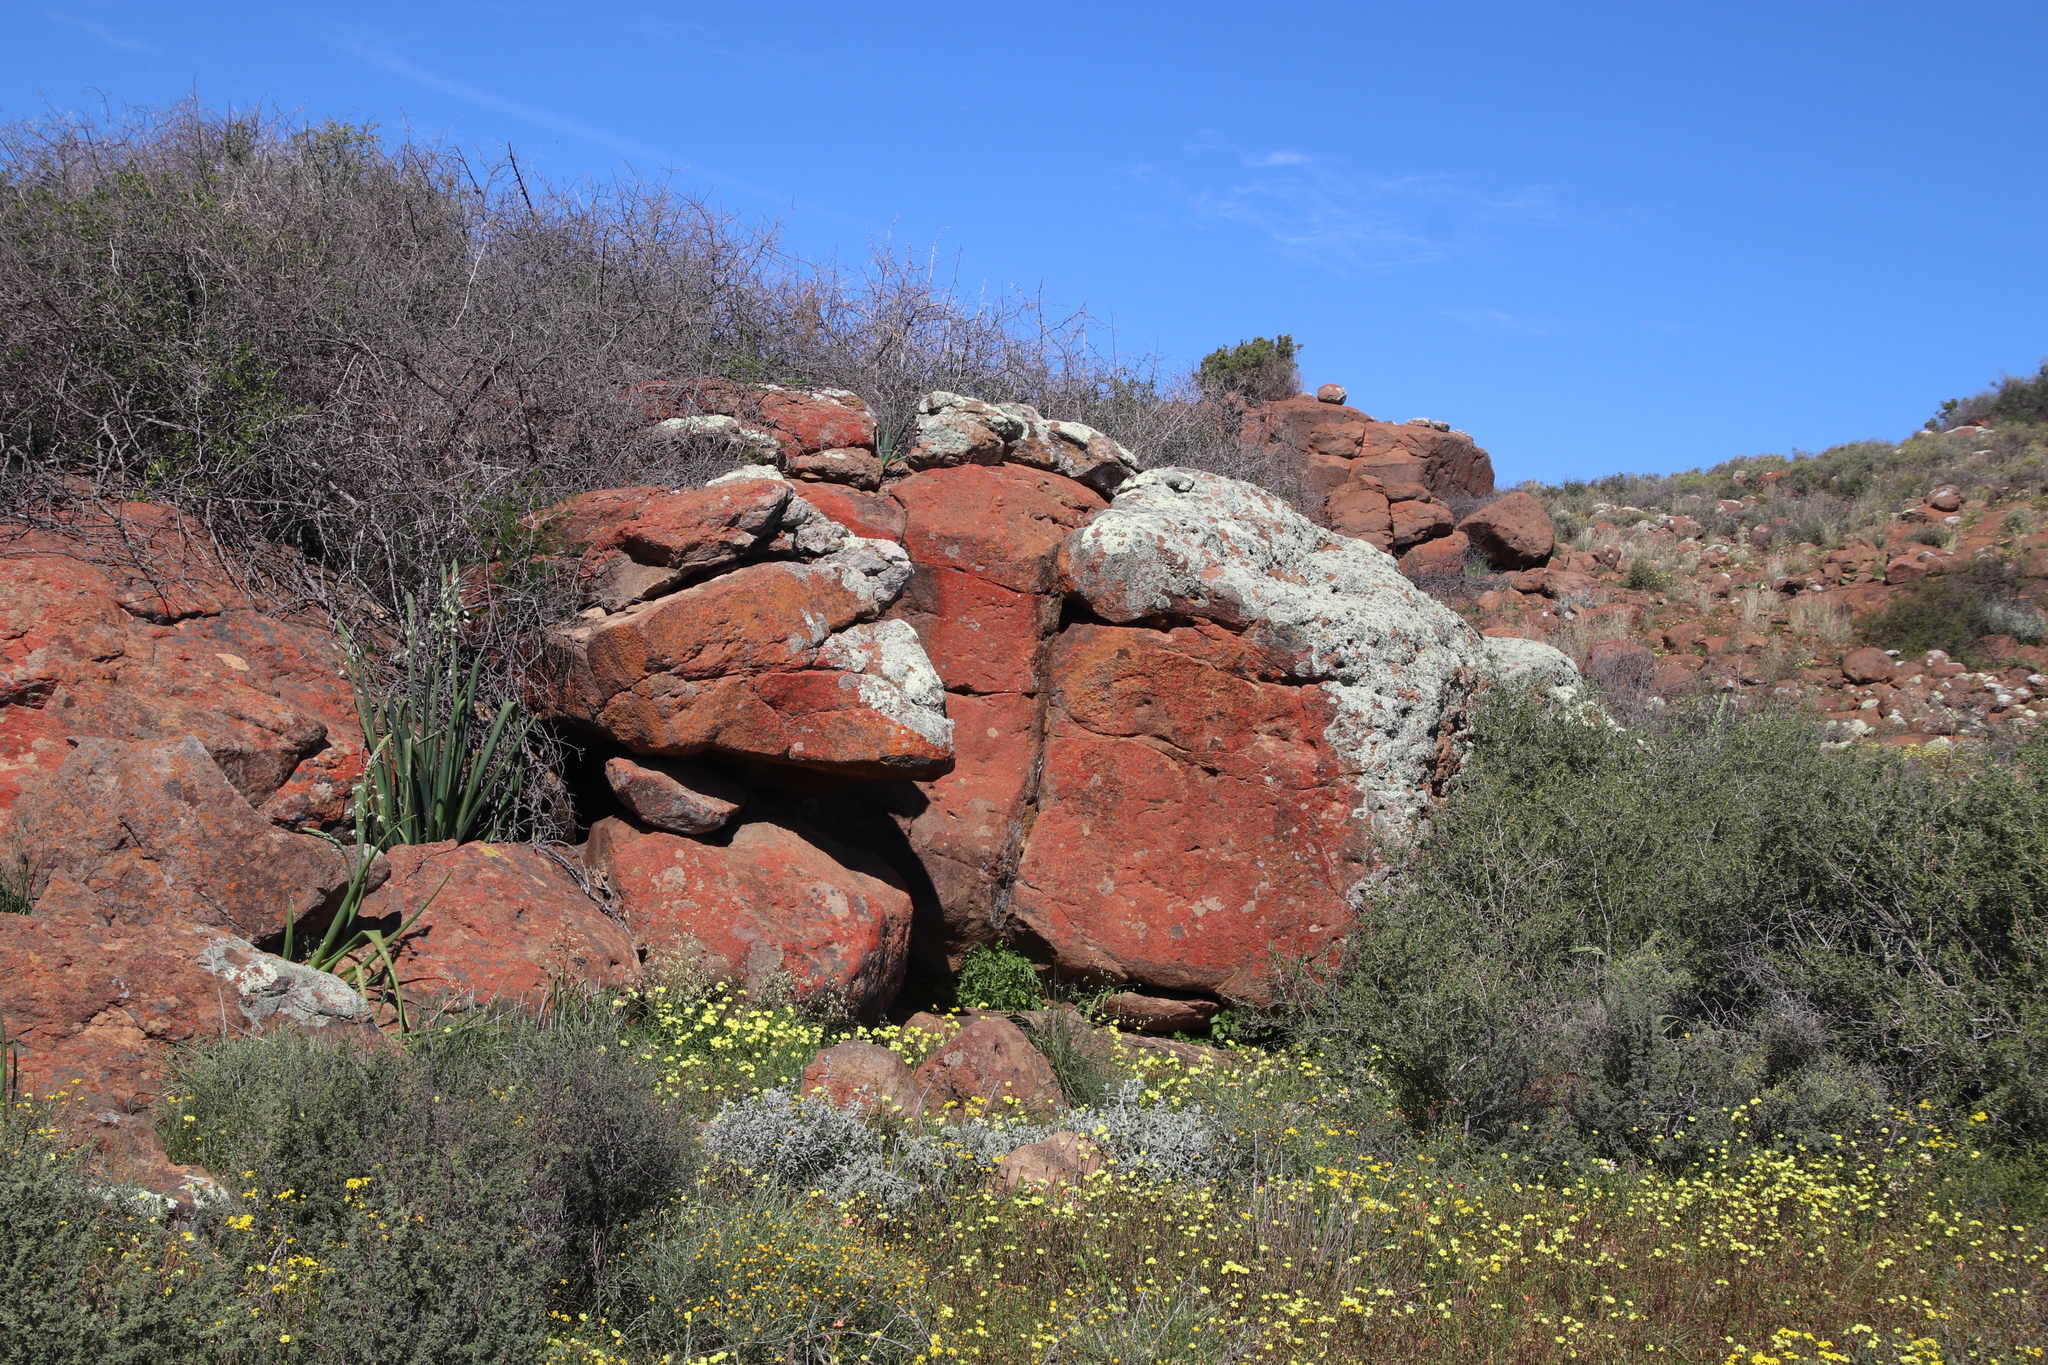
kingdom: Plantae
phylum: Tracheophyta
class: Liliopsida
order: Asparagales
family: Iridaceae
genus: Melasphaerula
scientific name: Melasphaerula graminea
